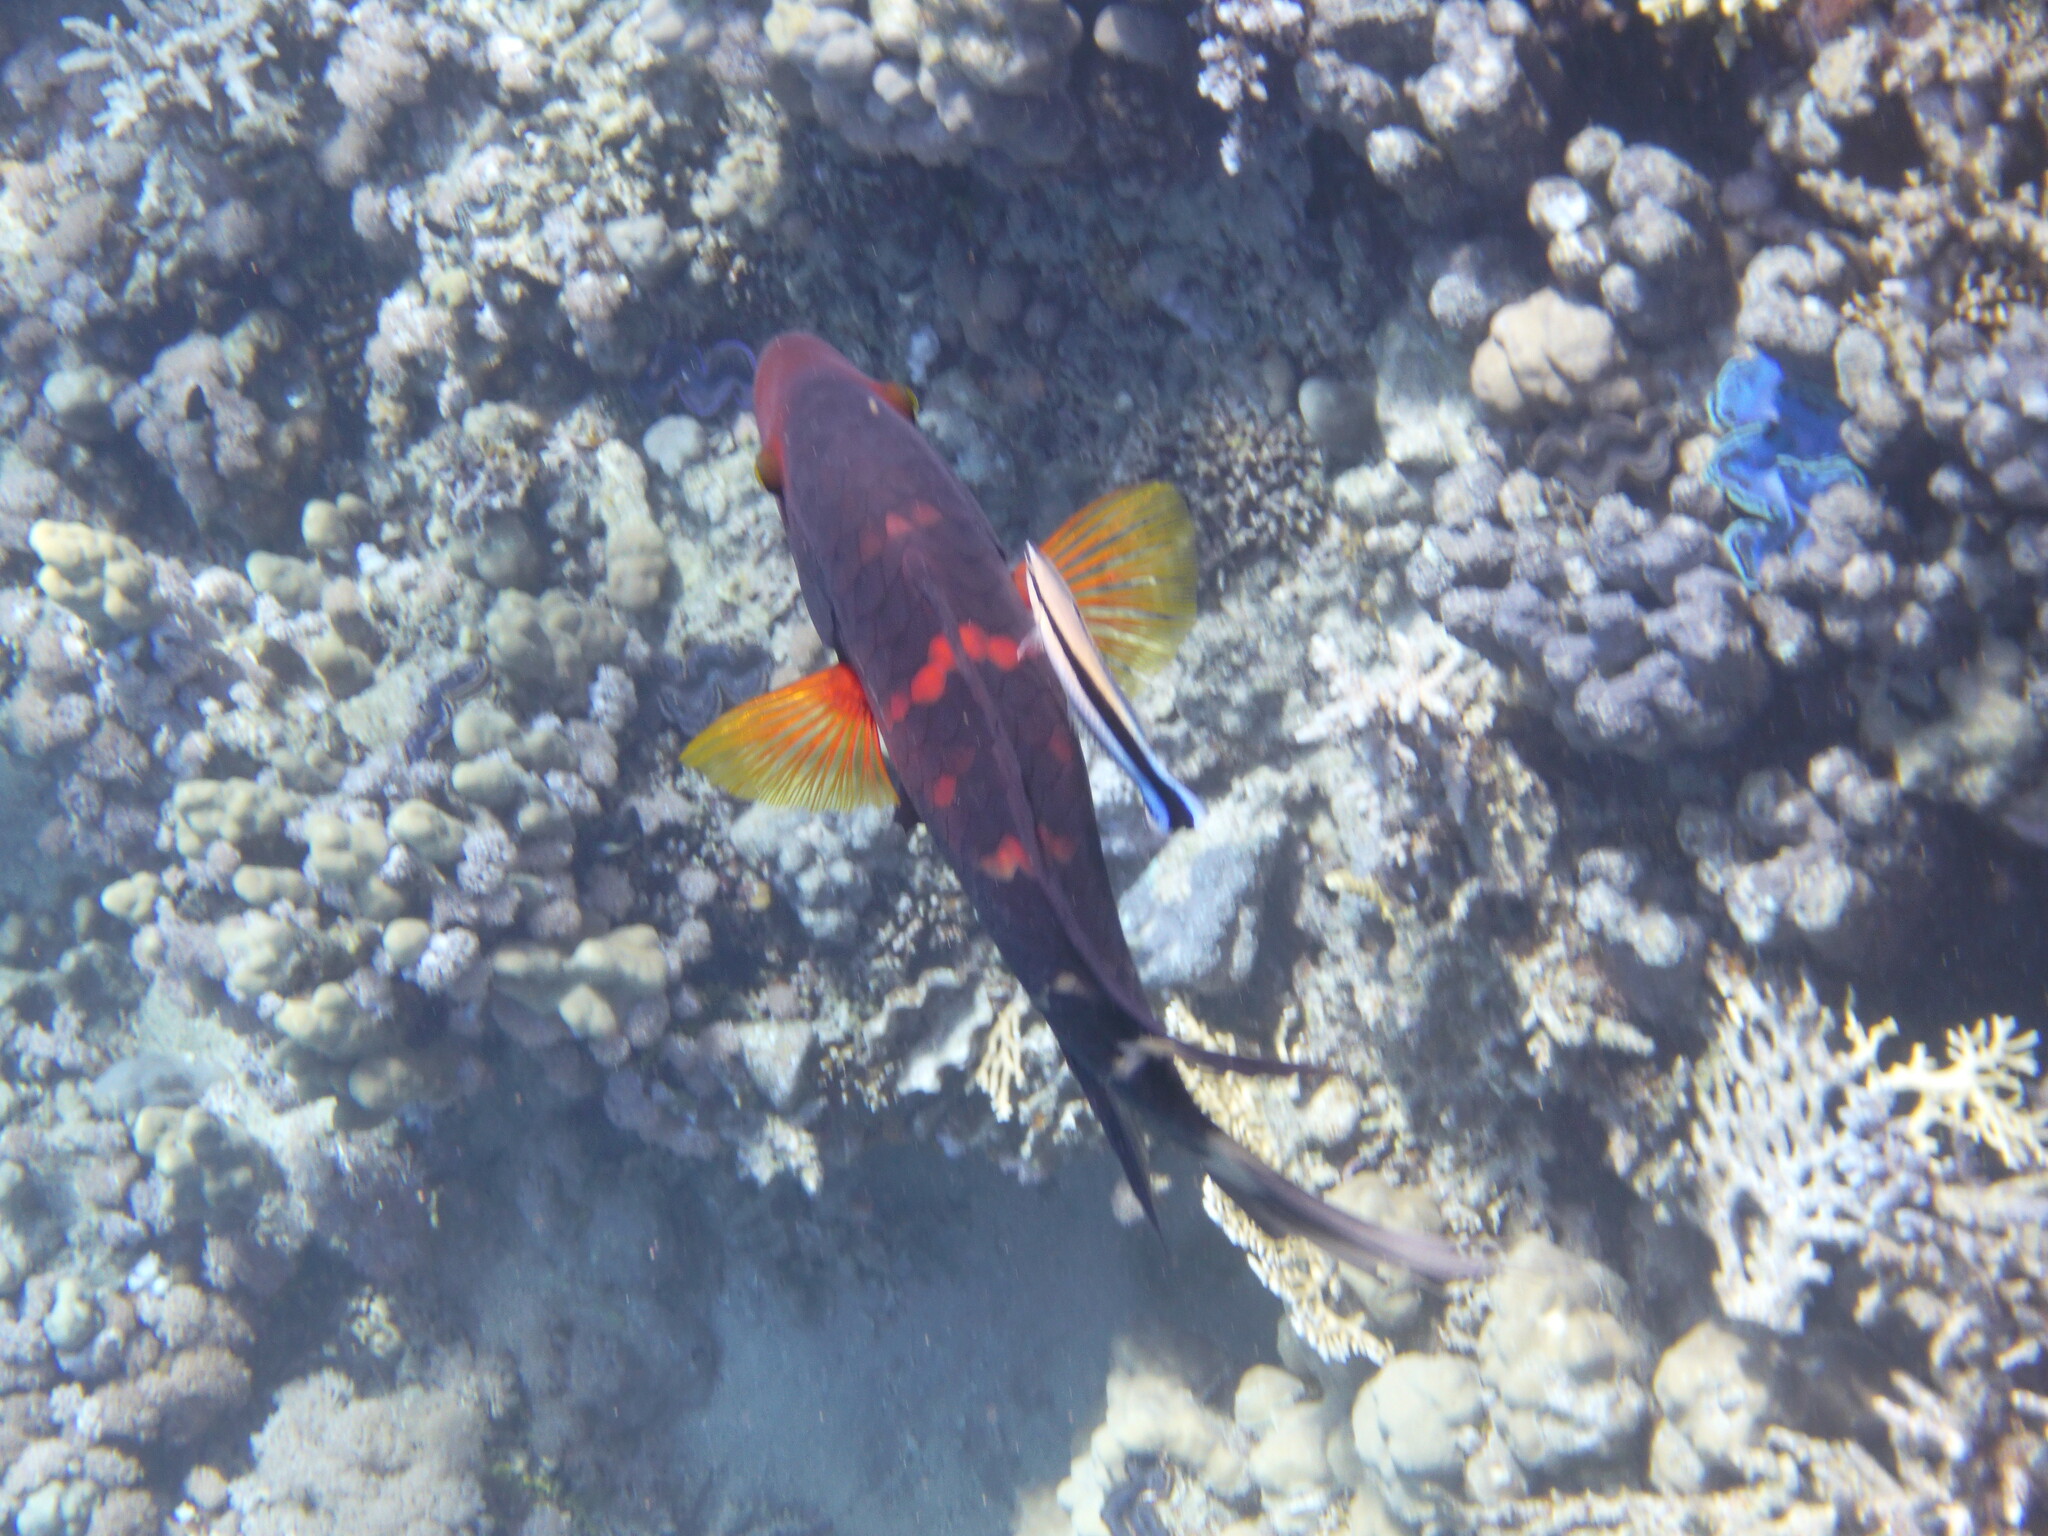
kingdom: Animalia
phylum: Chordata
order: Perciformes
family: Labridae
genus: Cheilinus
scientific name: Cheilinus fasciatus
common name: Red-breasted wrasse
